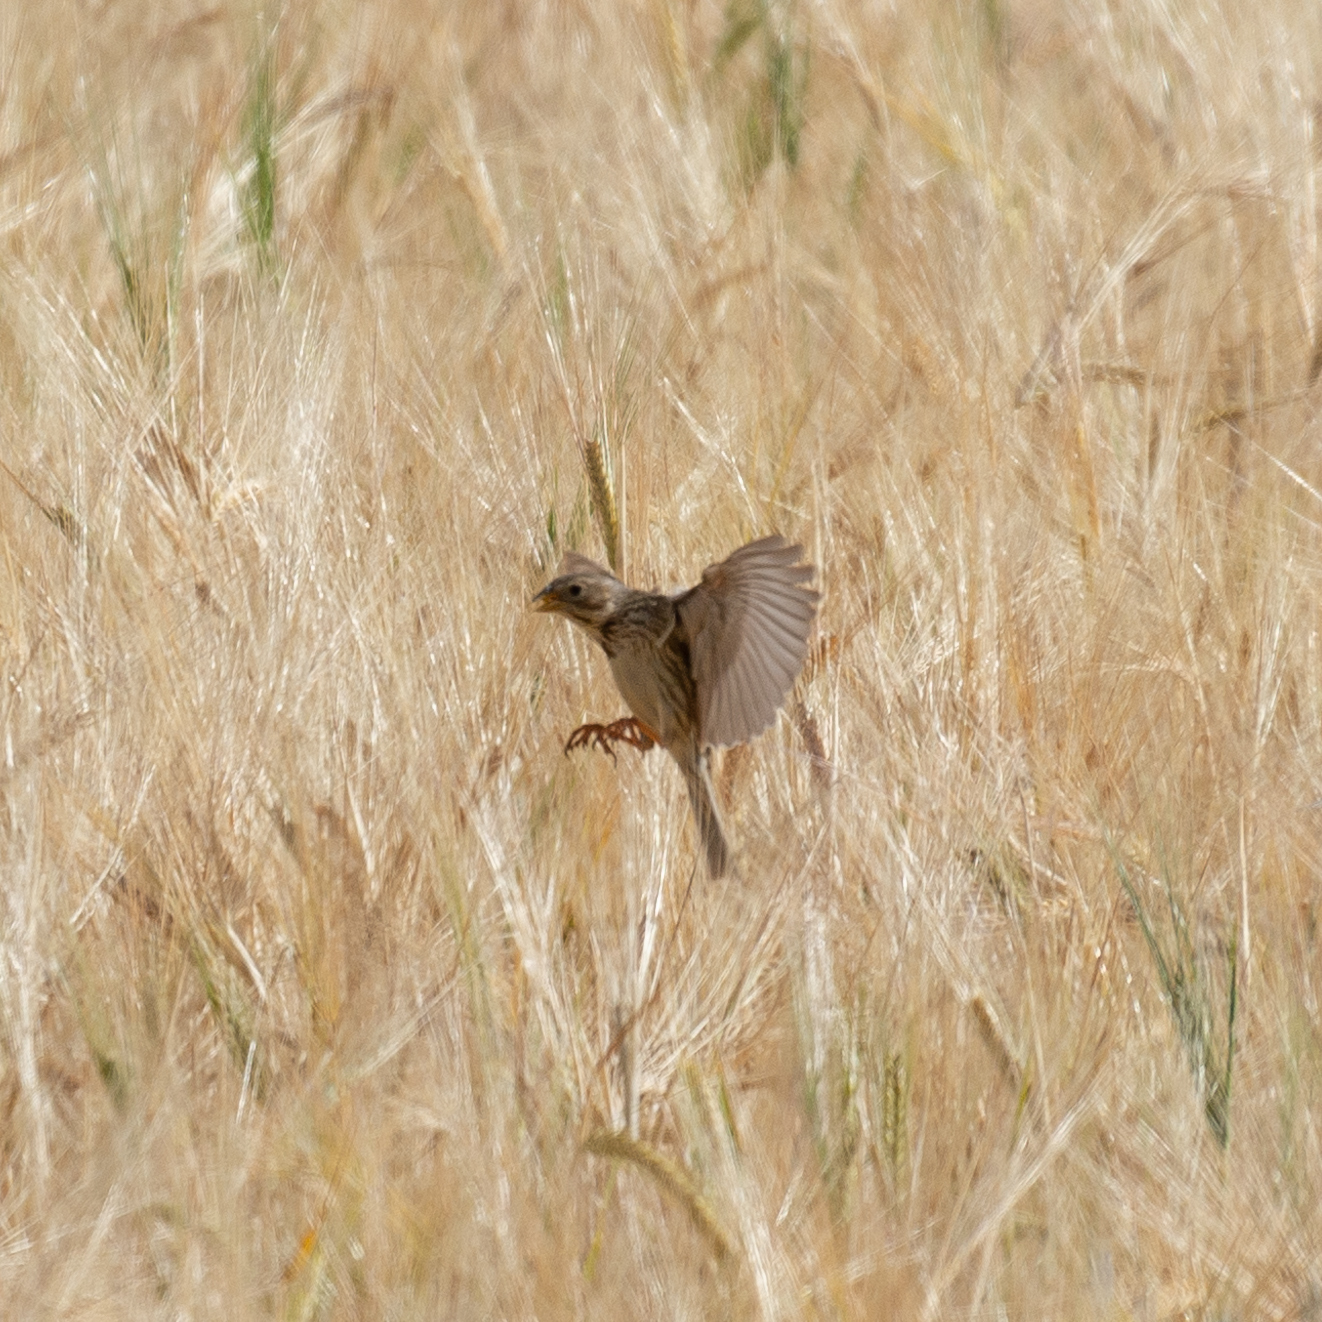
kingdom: Animalia
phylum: Chordata
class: Aves
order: Passeriformes
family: Emberizidae
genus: Emberiza
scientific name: Emberiza calandra
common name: Corn bunting
